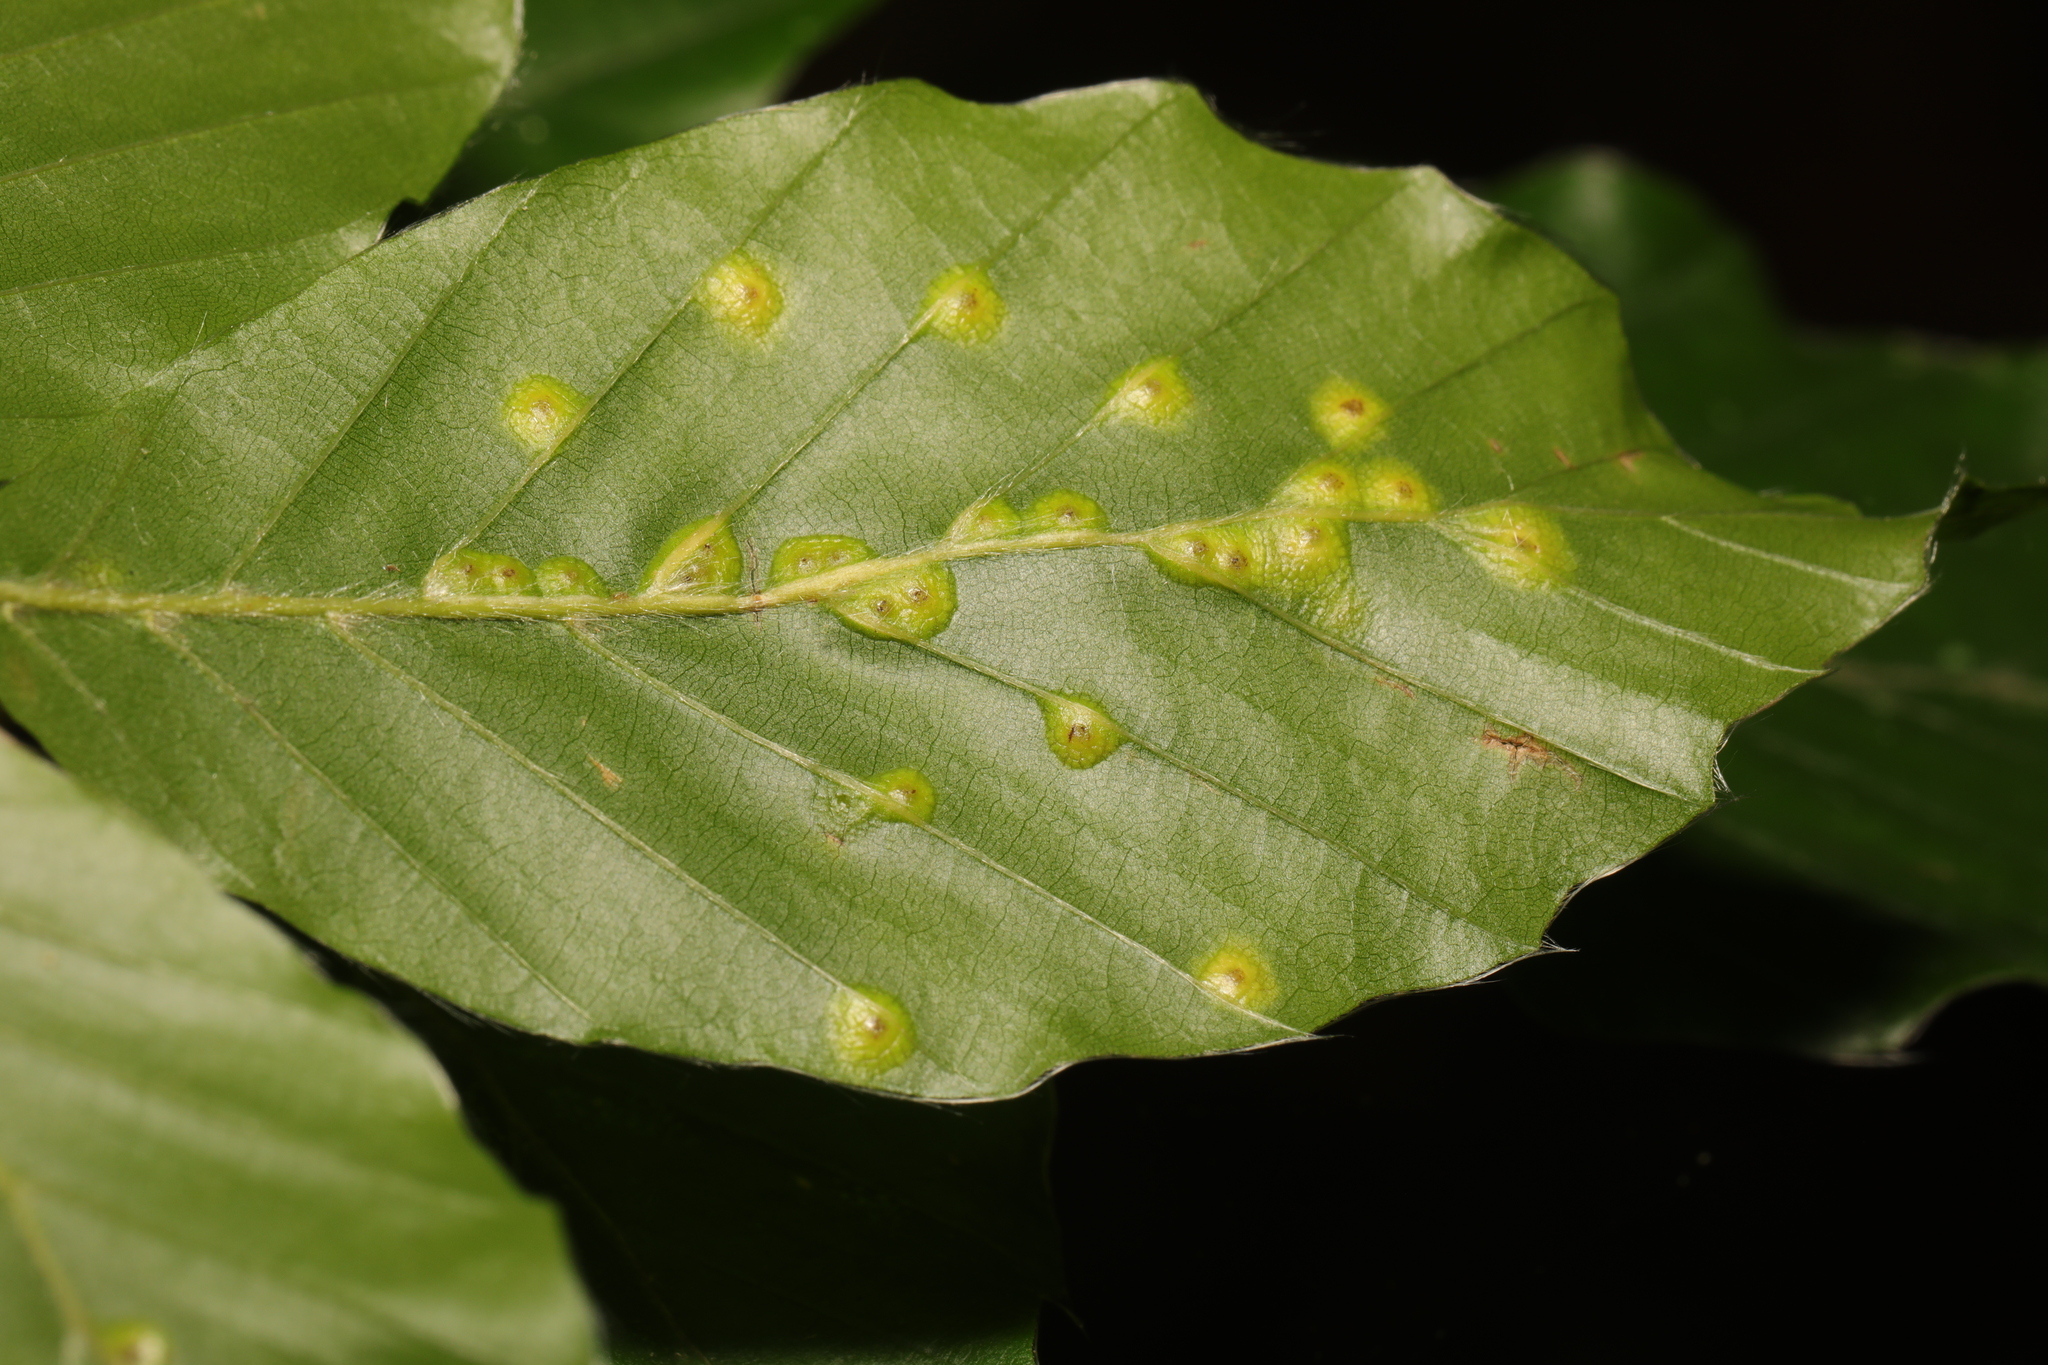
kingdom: Animalia
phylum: Arthropoda
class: Insecta
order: Diptera
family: Cecidomyiidae
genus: Hartigiola
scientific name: Hartigiola annulipes
